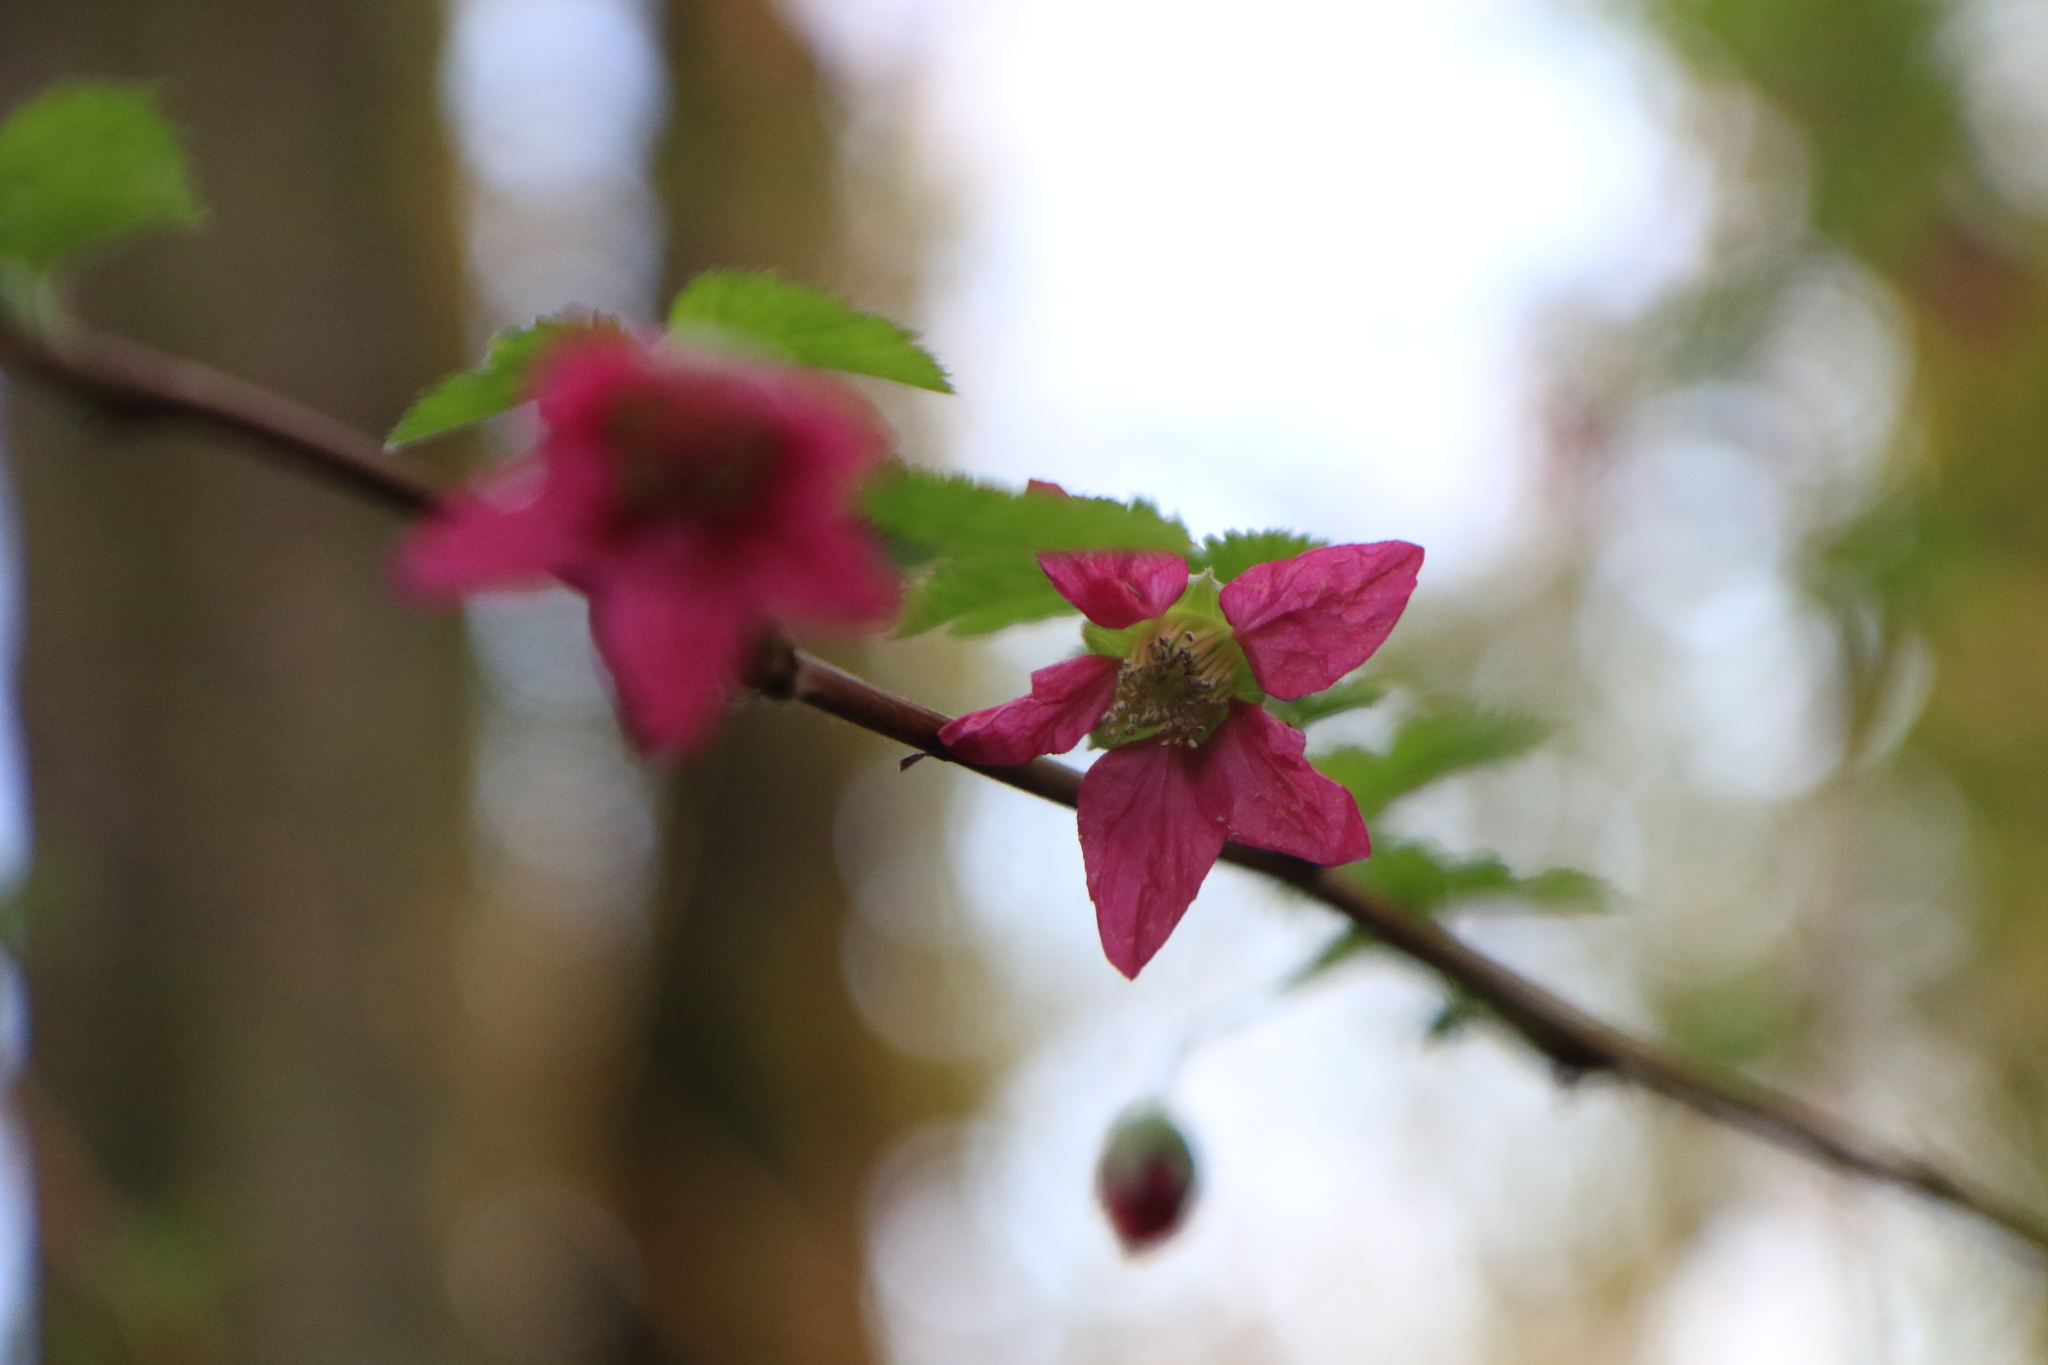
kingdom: Plantae
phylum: Tracheophyta
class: Magnoliopsida
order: Rosales
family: Rosaceae
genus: Rubus
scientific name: Rubus spectabilis
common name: Salmonberry
